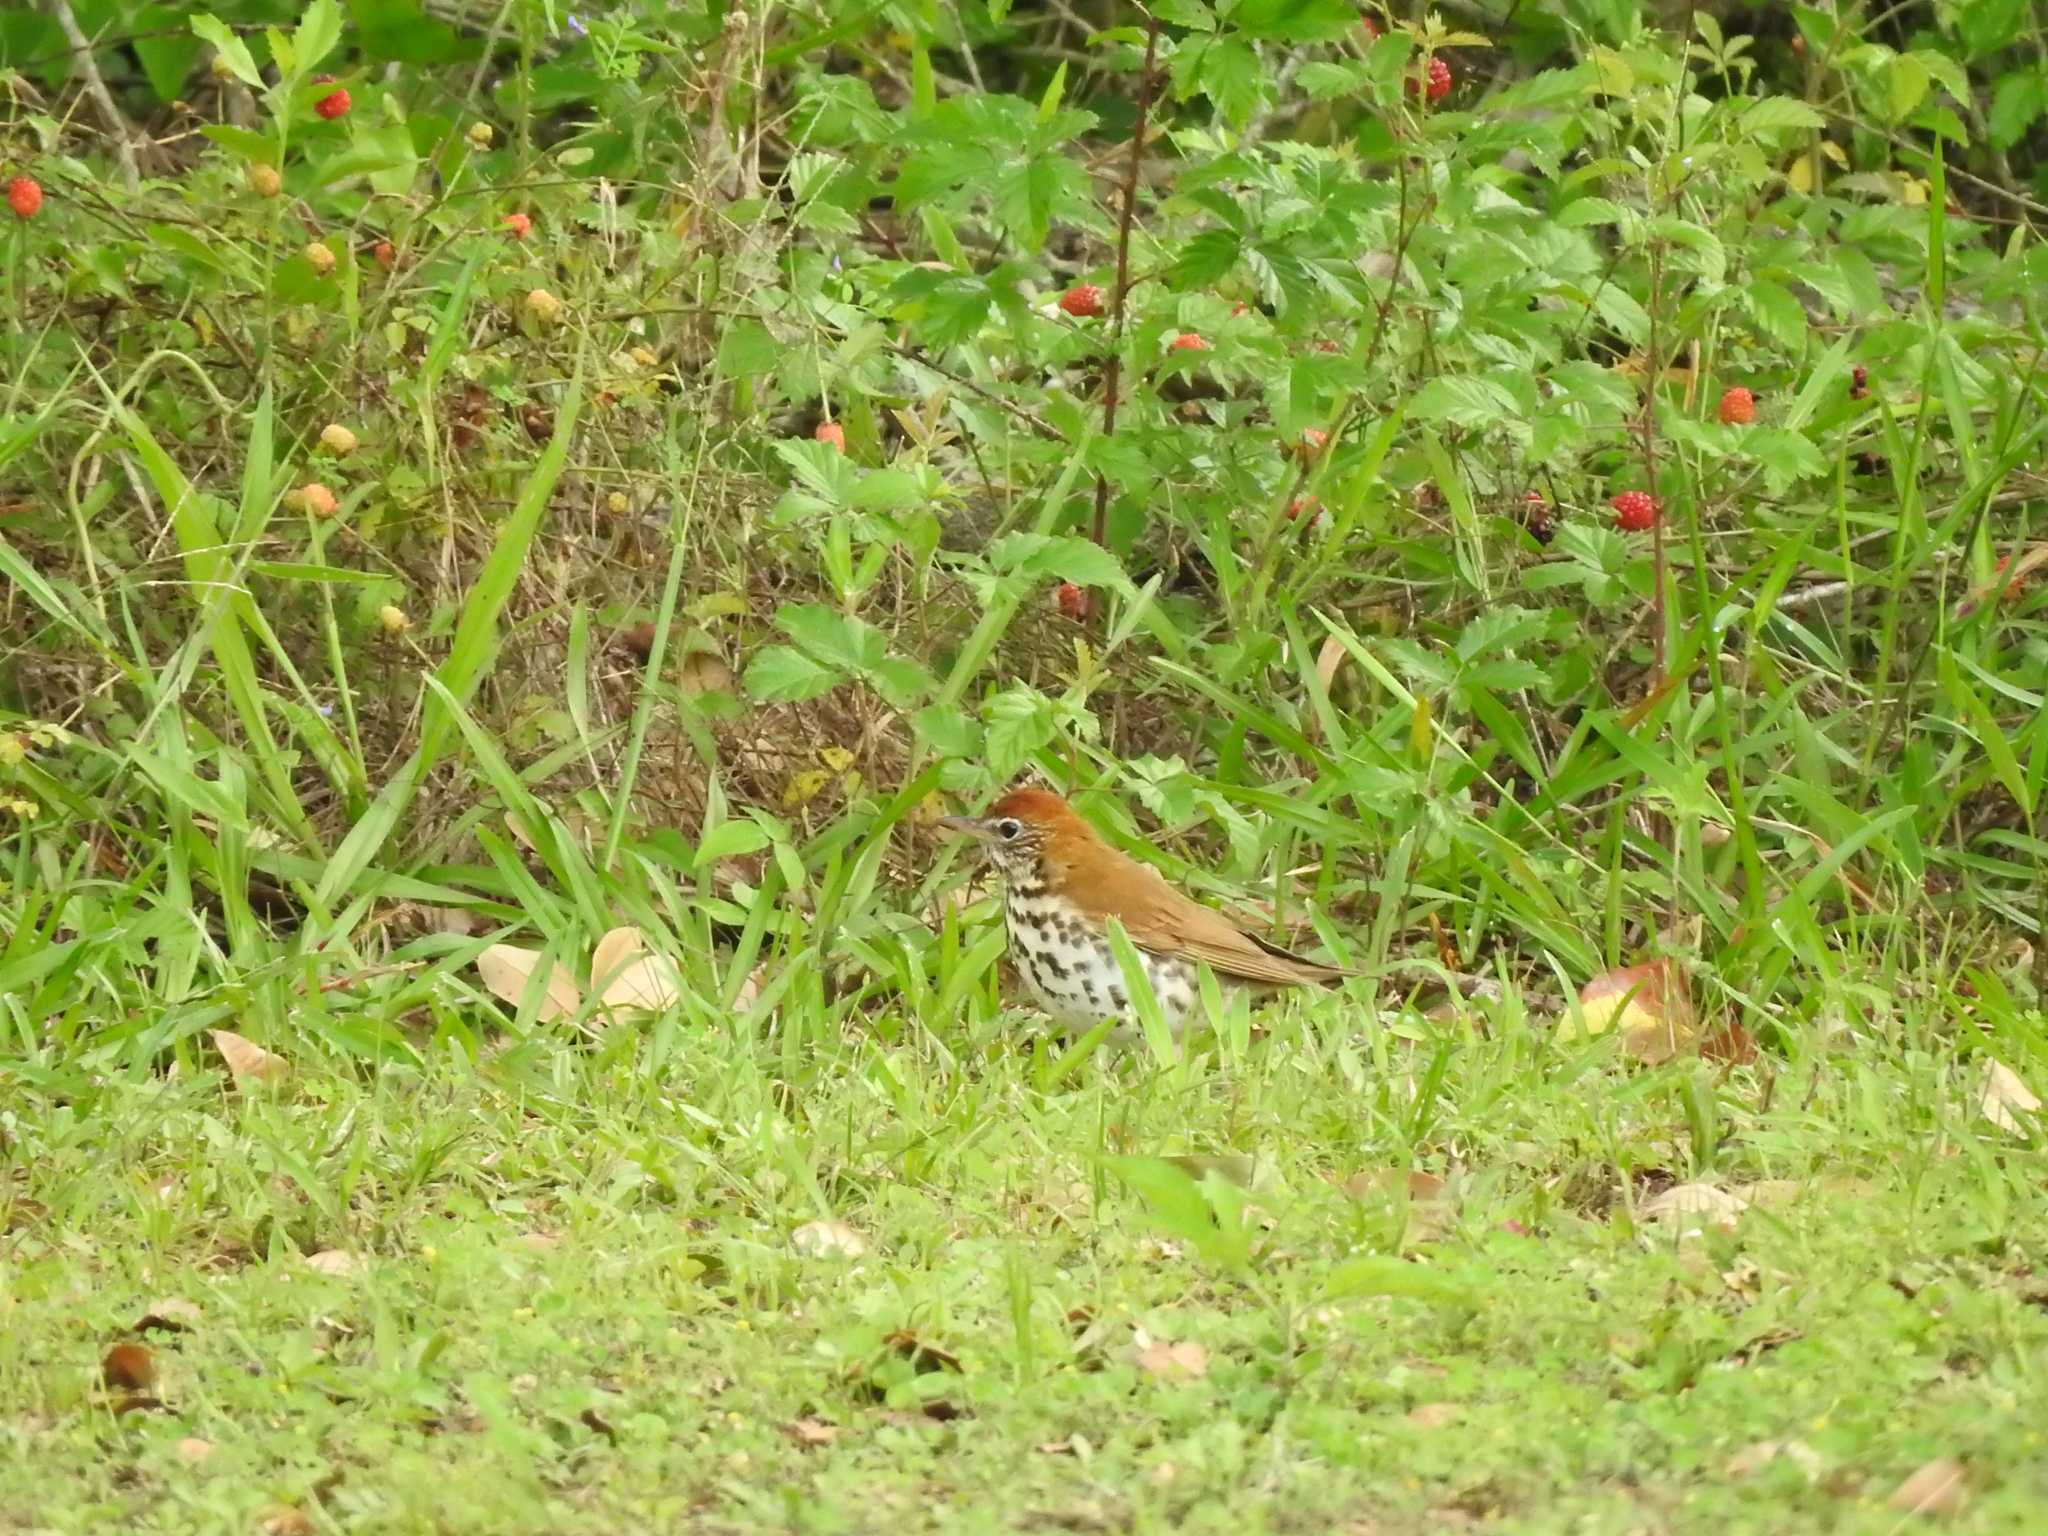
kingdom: Animalia
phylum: Chordata
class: Aves
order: Passeriformes
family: Turdidae
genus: Hylocichla
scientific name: Hylocichla mustelina
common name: Wood thrush
